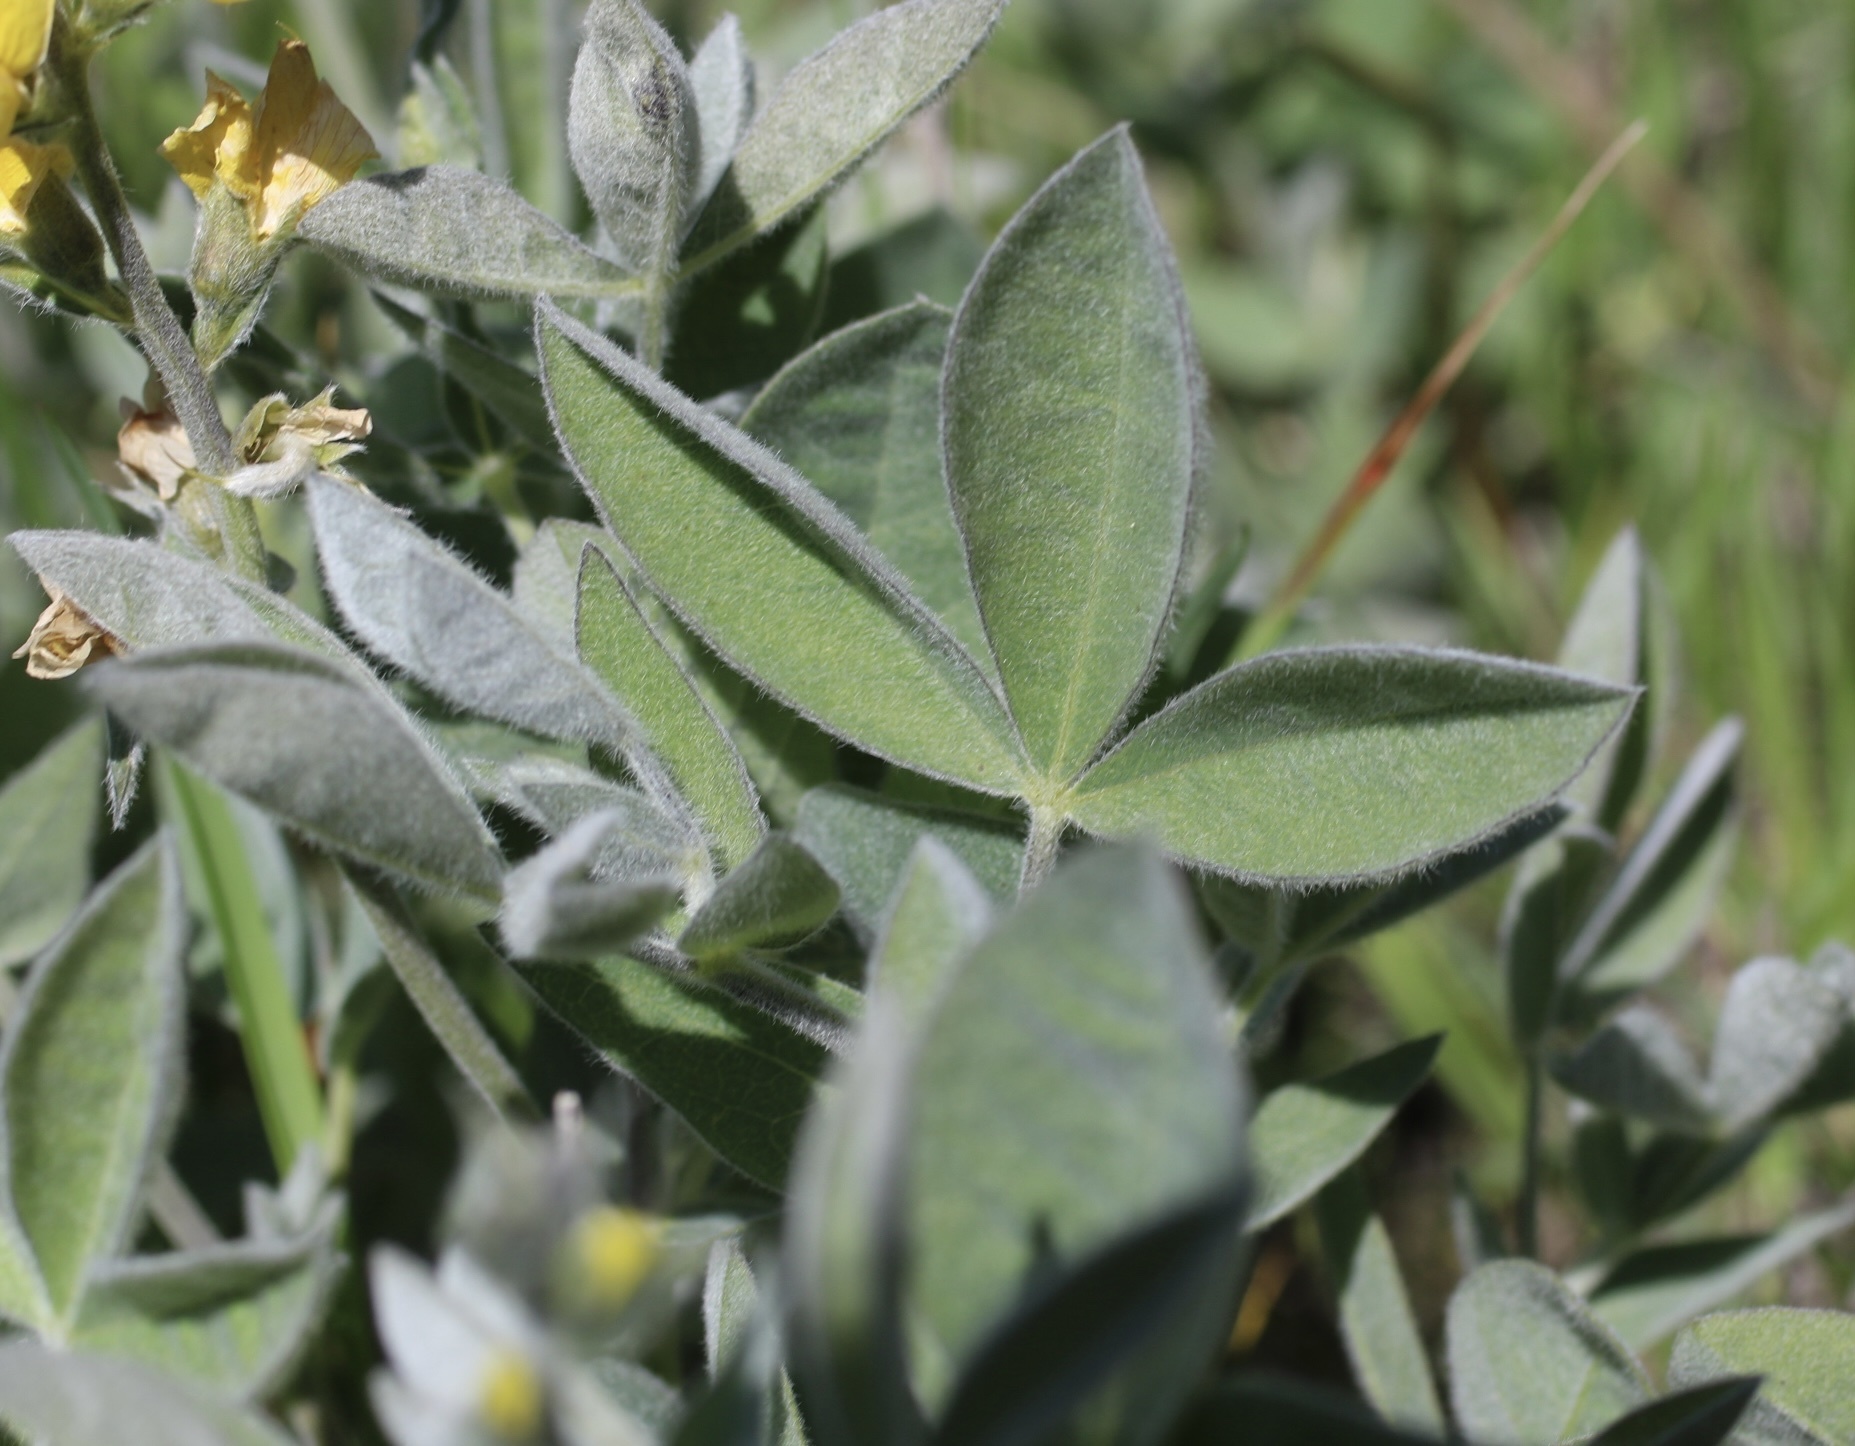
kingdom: Plantae
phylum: Tracheophyta
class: Magnoliopsida
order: Fabales
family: Fabaceae
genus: Thermopsis
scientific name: Thermopsis californica
